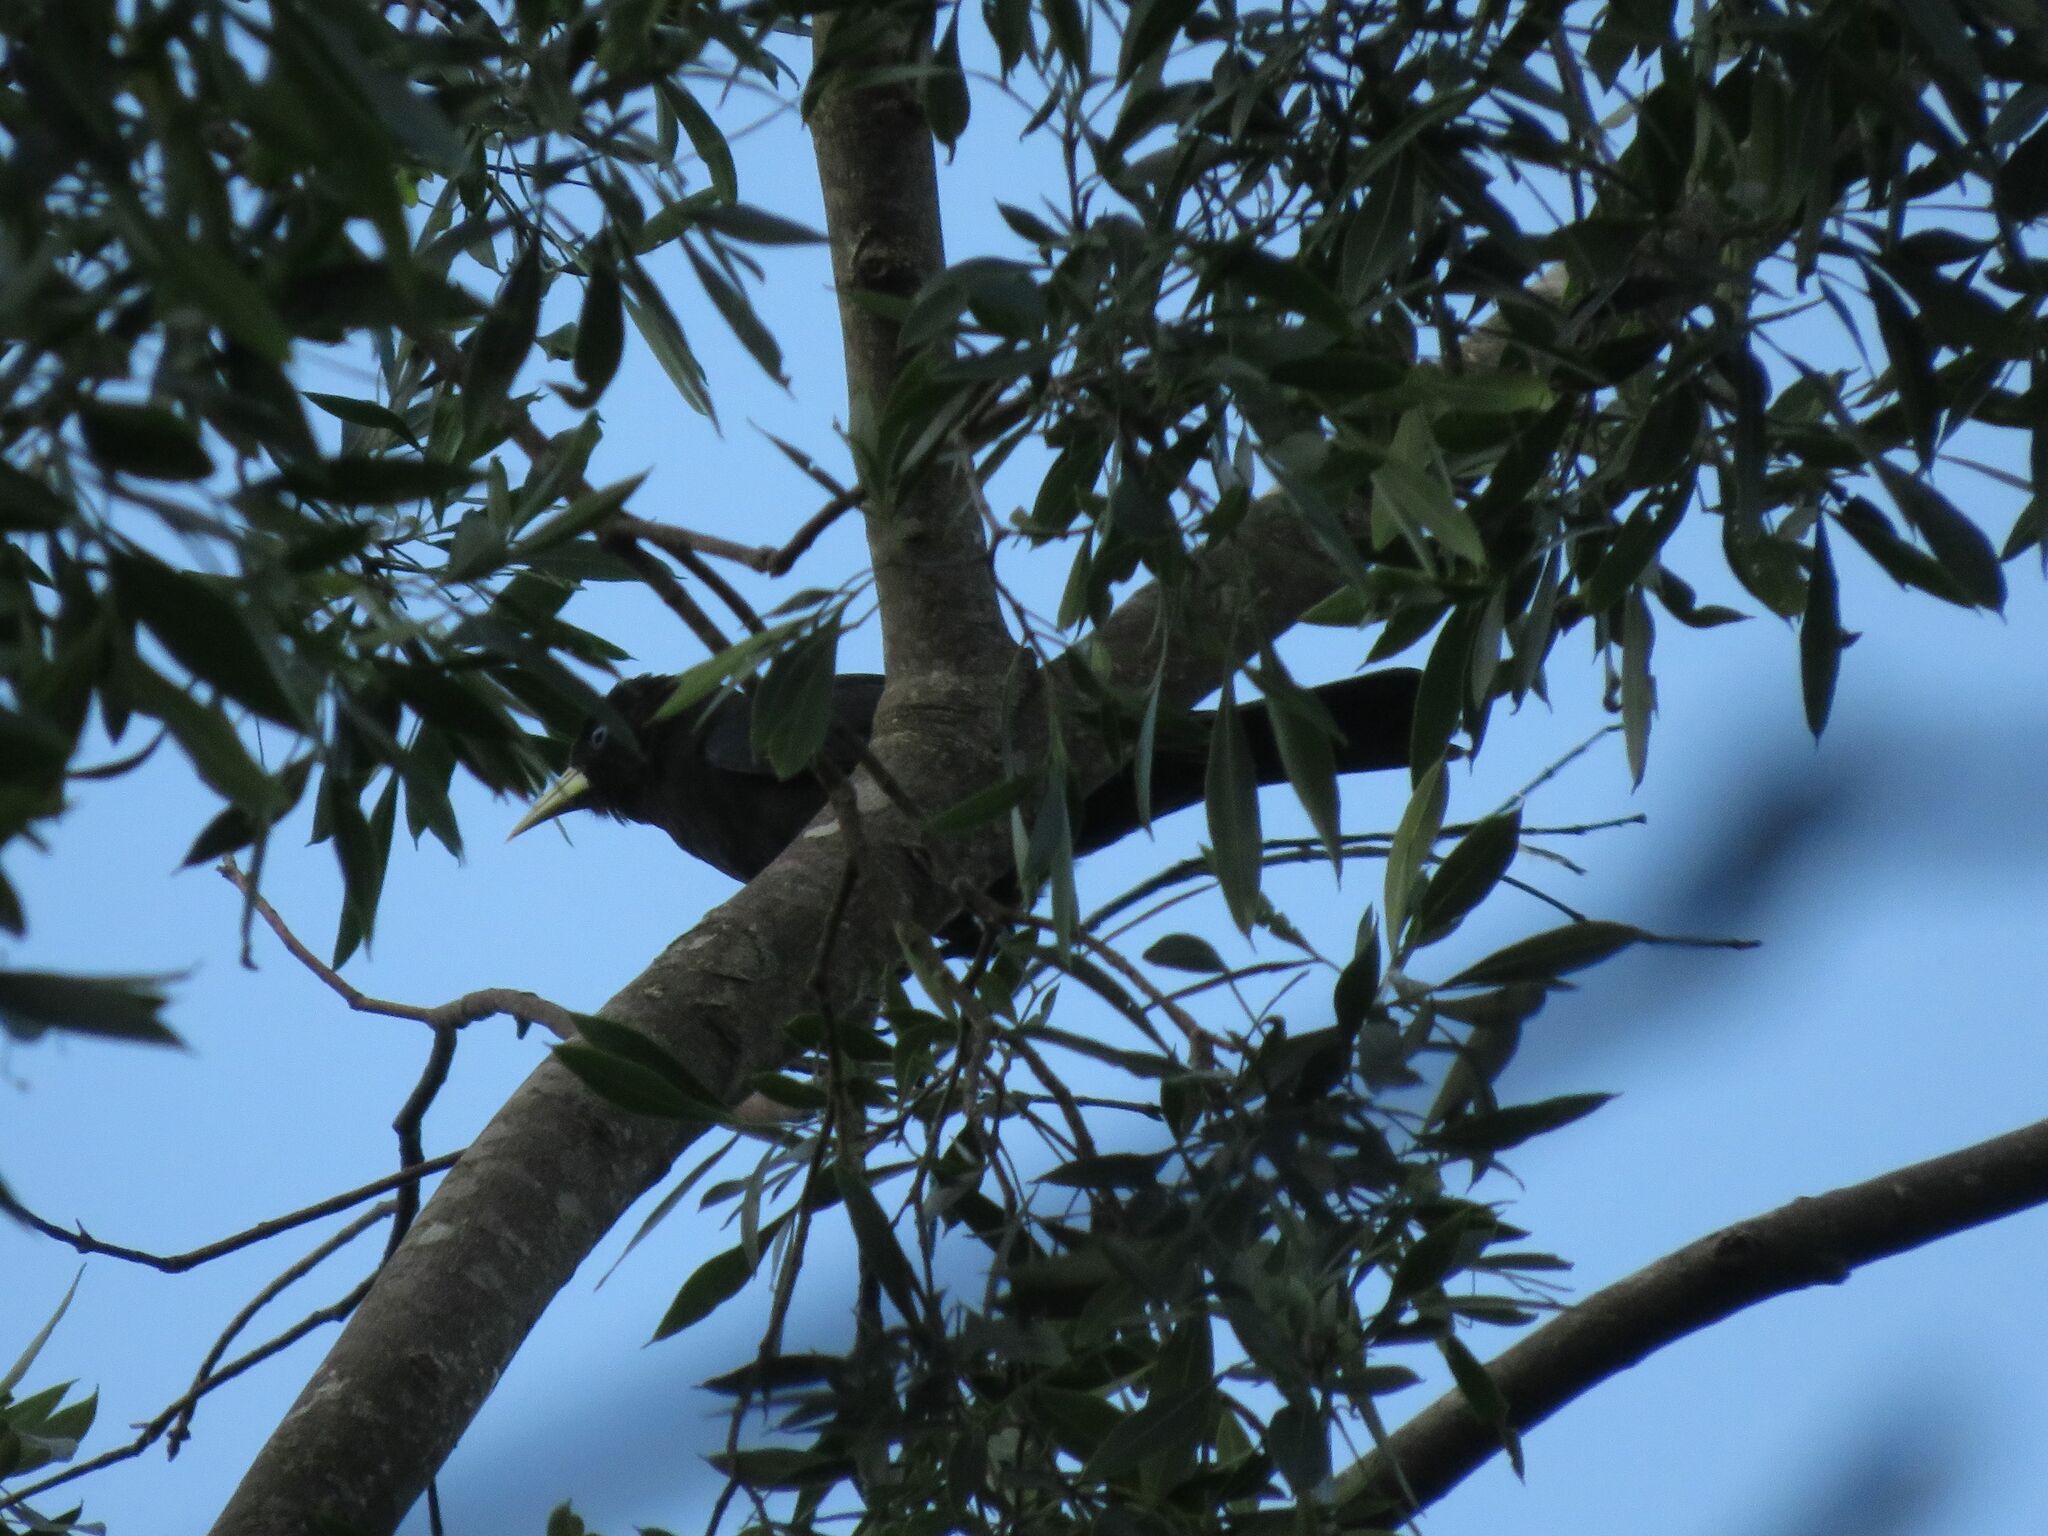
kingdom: Animalia
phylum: Chordata
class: Aves
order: Passeriformes
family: Icteridae
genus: Cacicus
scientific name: Cacicus haemorrhous
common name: Red-rumped cacique
